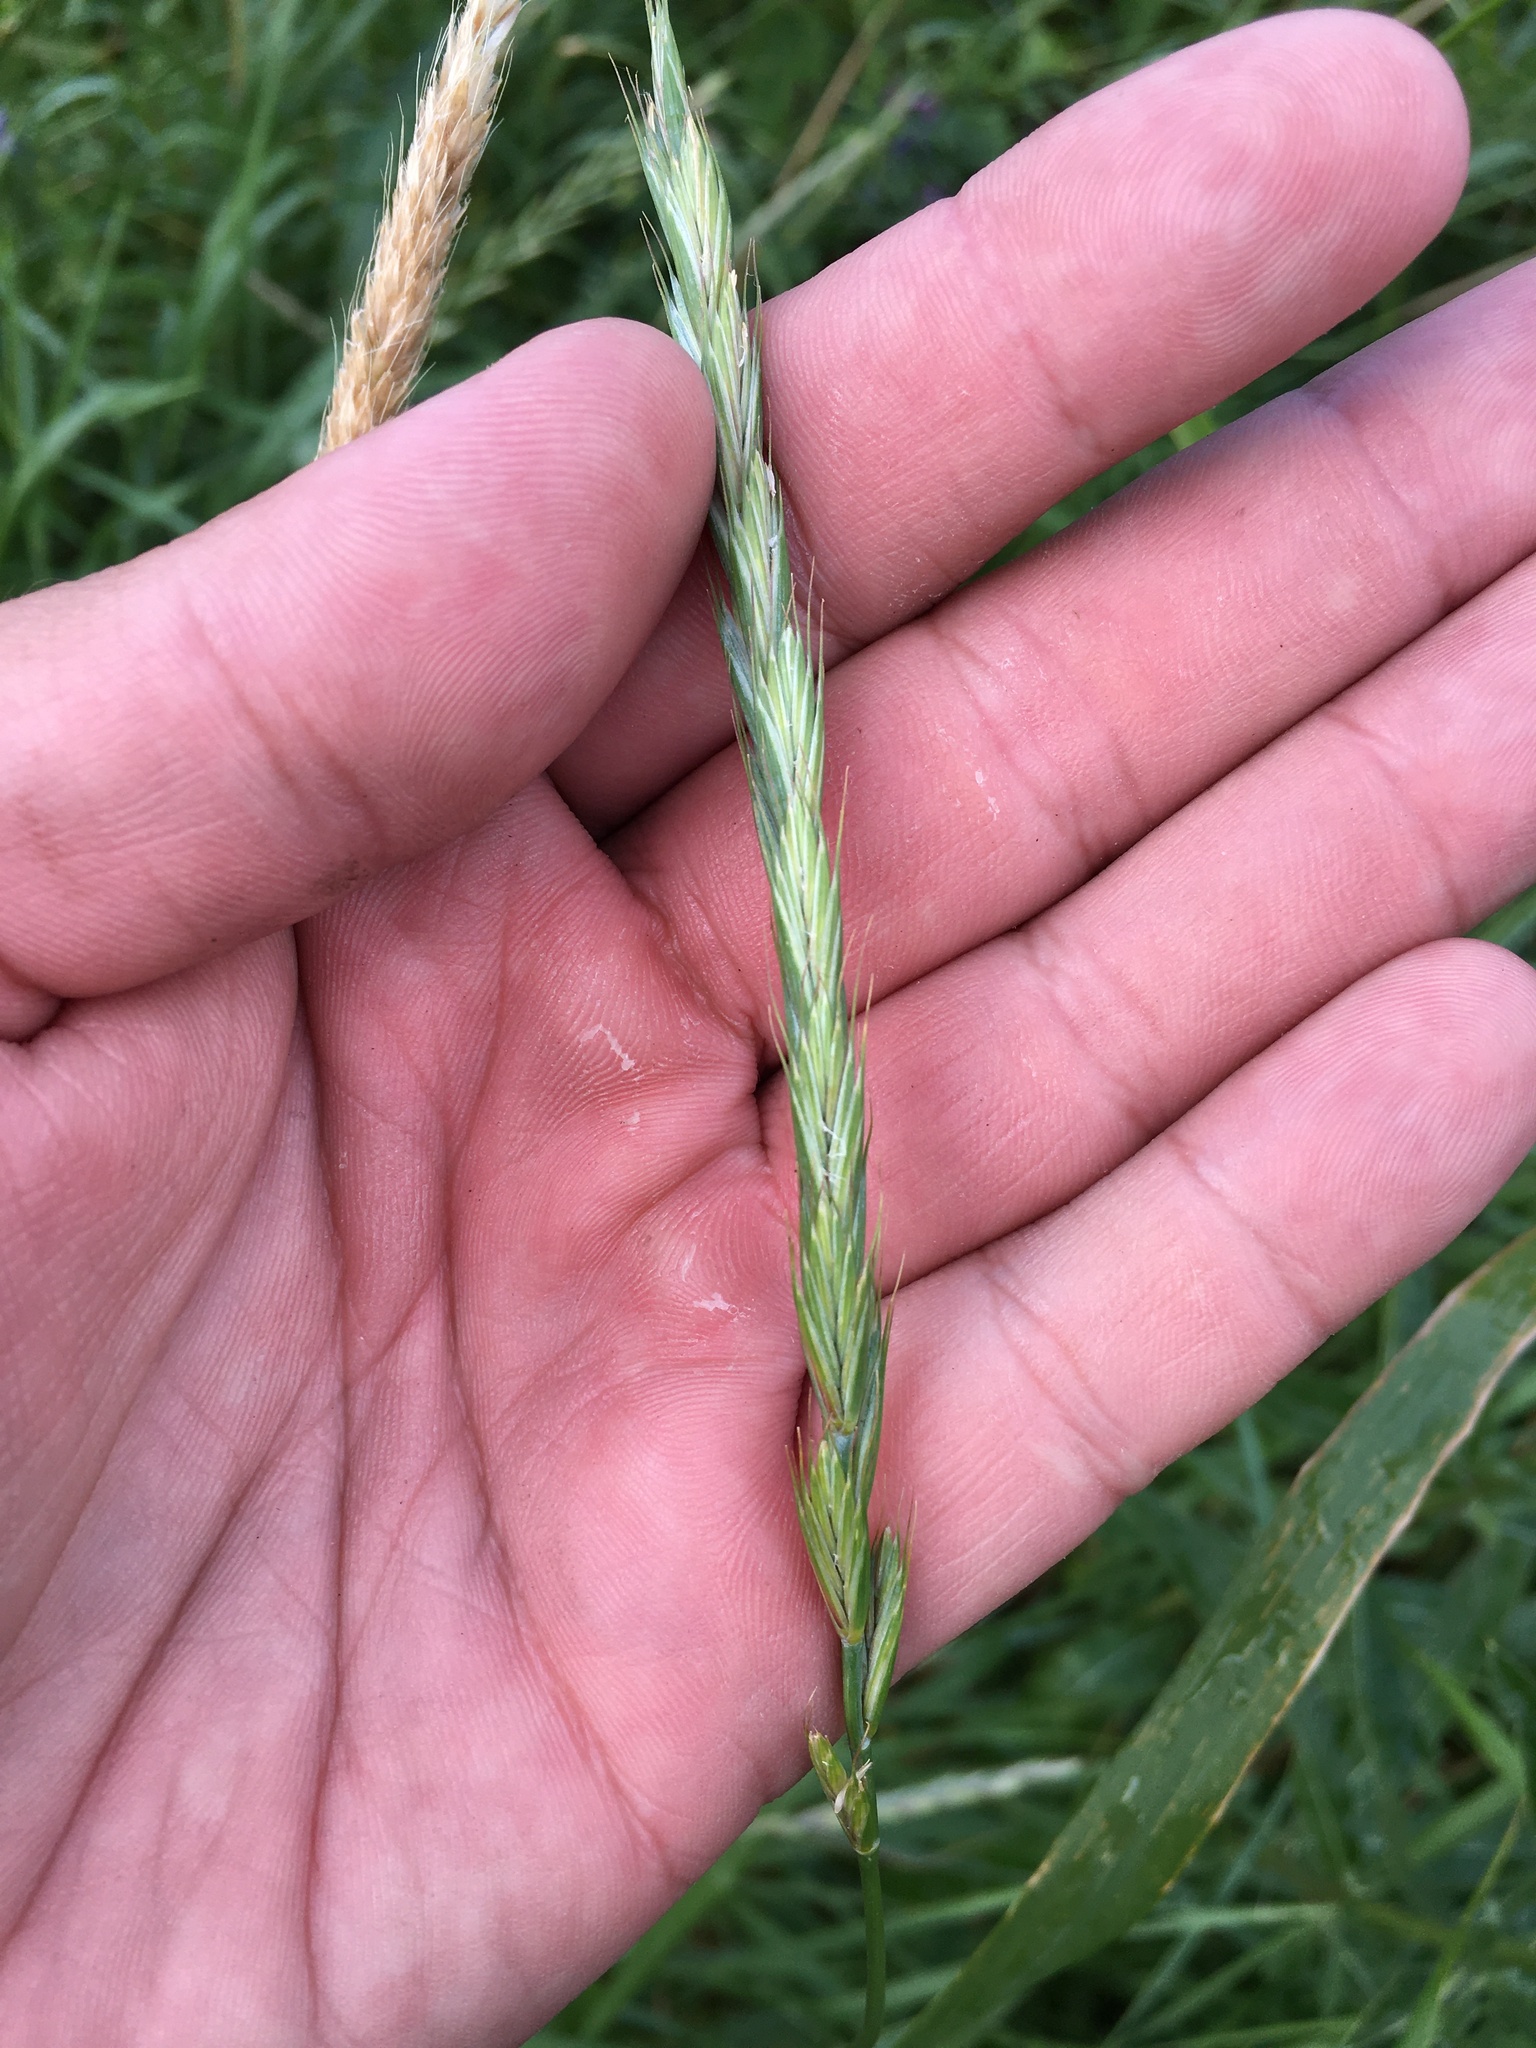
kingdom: Plantae
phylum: Tracheophyta
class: Liliopsida
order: Poales
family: Poaceae
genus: Elymus
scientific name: Elymus repens
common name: Quackgrass
